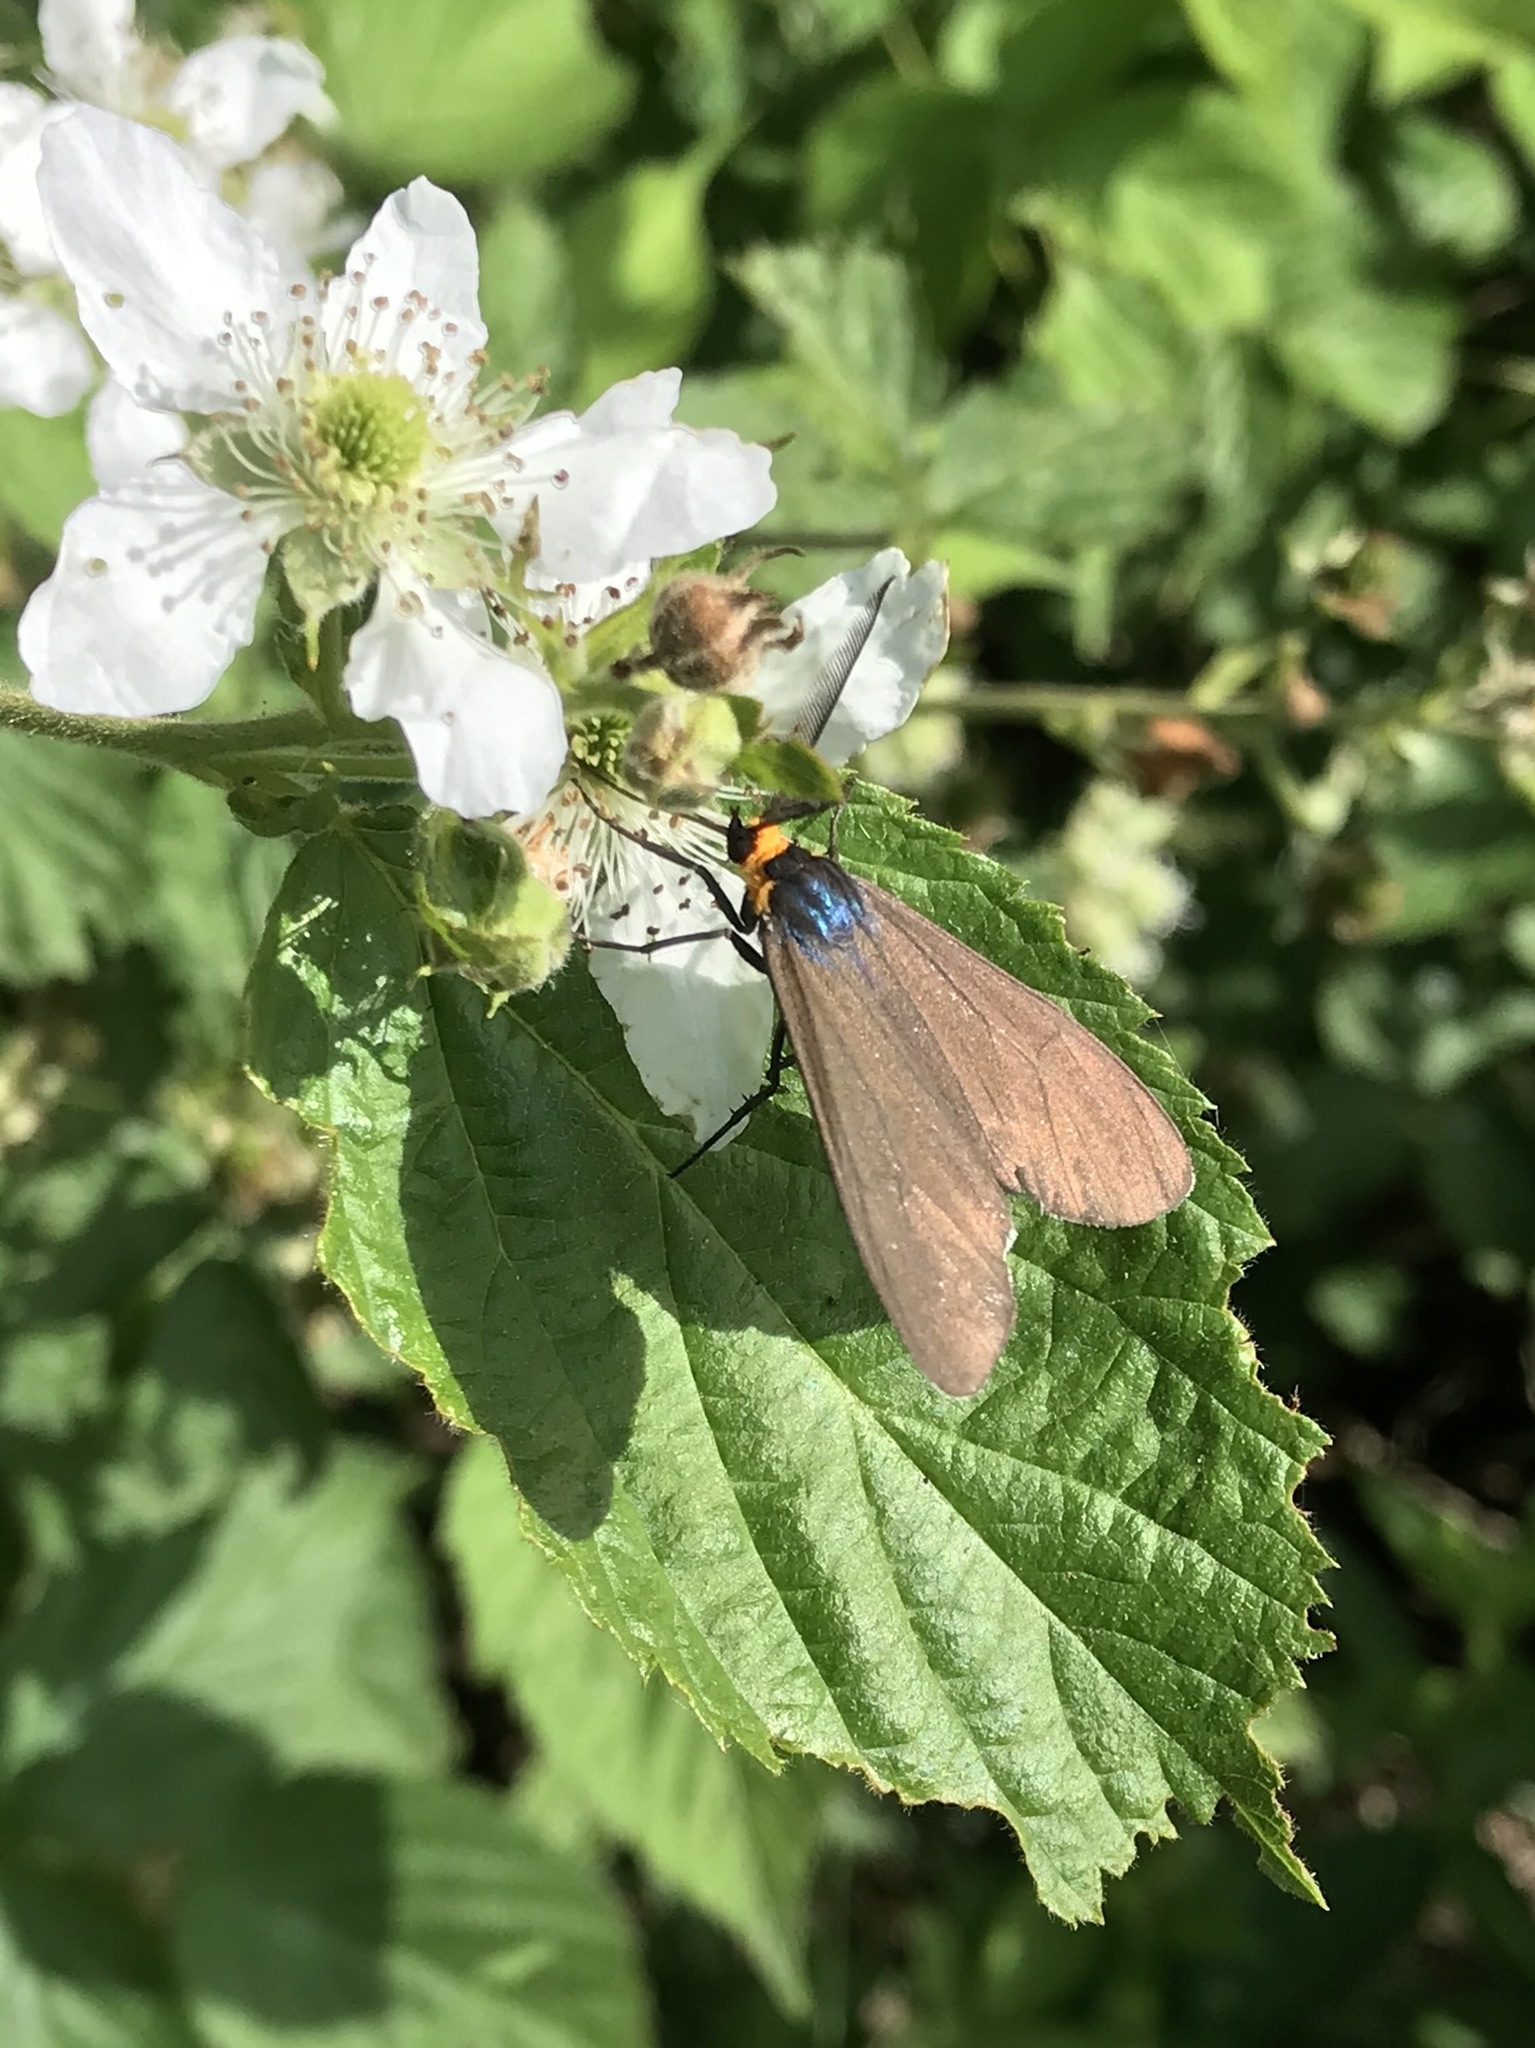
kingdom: Animalia
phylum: Arthropoda
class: Insecta
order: Lepidoptera
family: Erebidae
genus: Ctenucha
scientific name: Ctenucha virginica
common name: Virginia ctenucha moth
